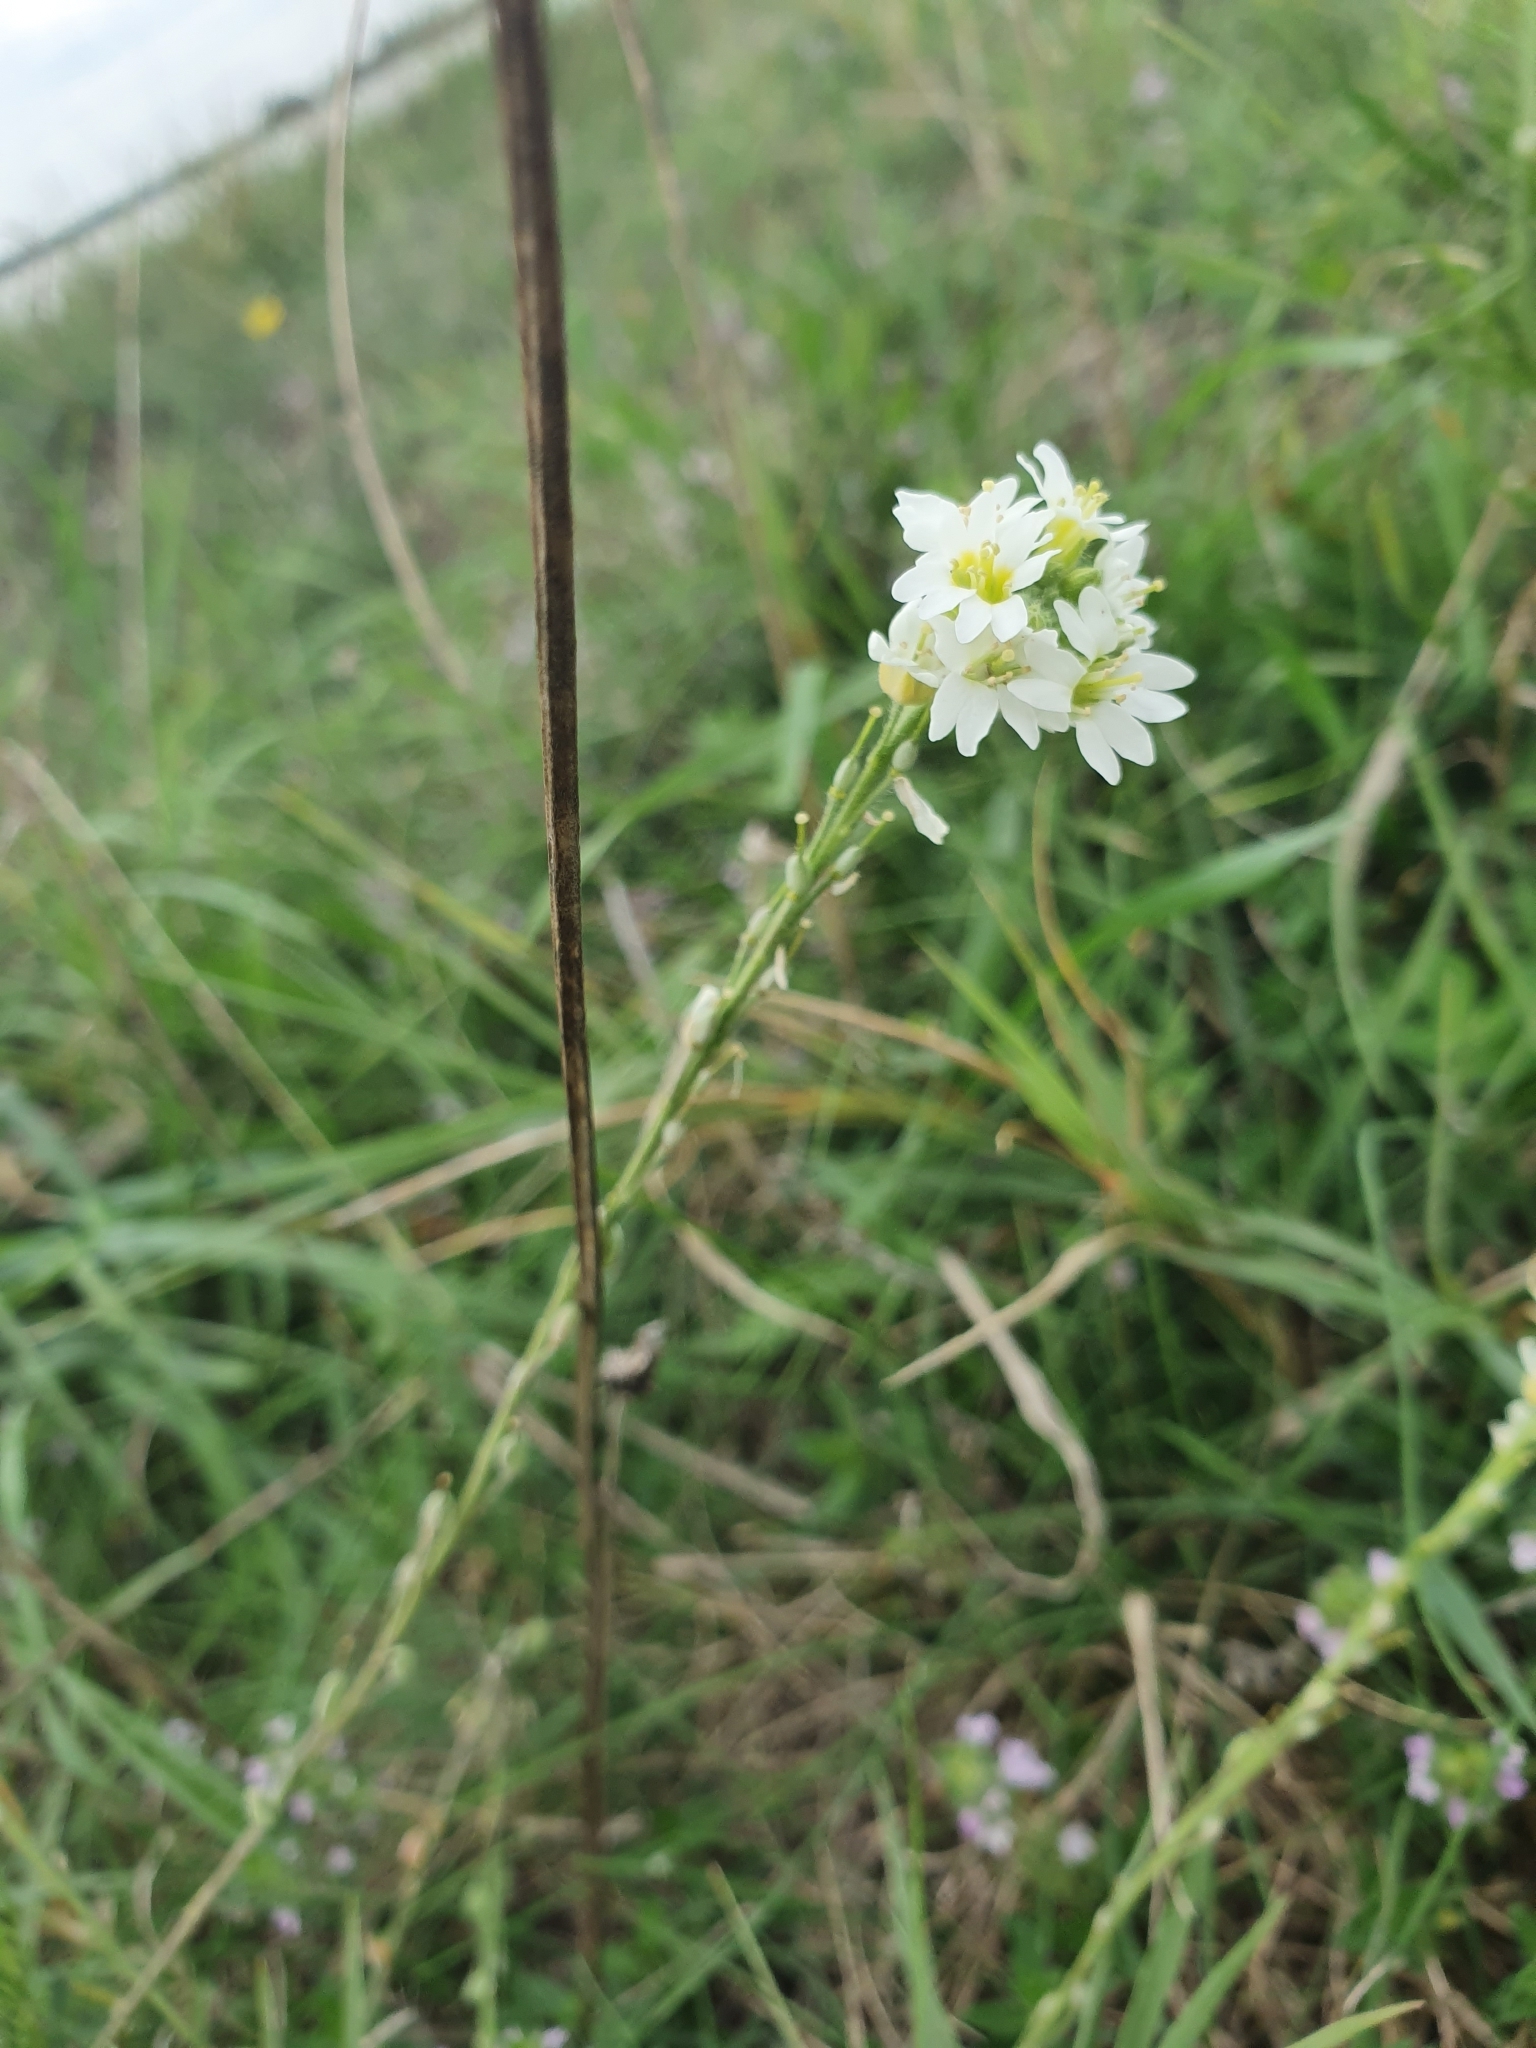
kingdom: Plantae
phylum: Tracheophyta
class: Magnoliopsida
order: Brassicales
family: Brassicaceae
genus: Berteroa
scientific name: Berteroa incana
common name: Hoary alison
